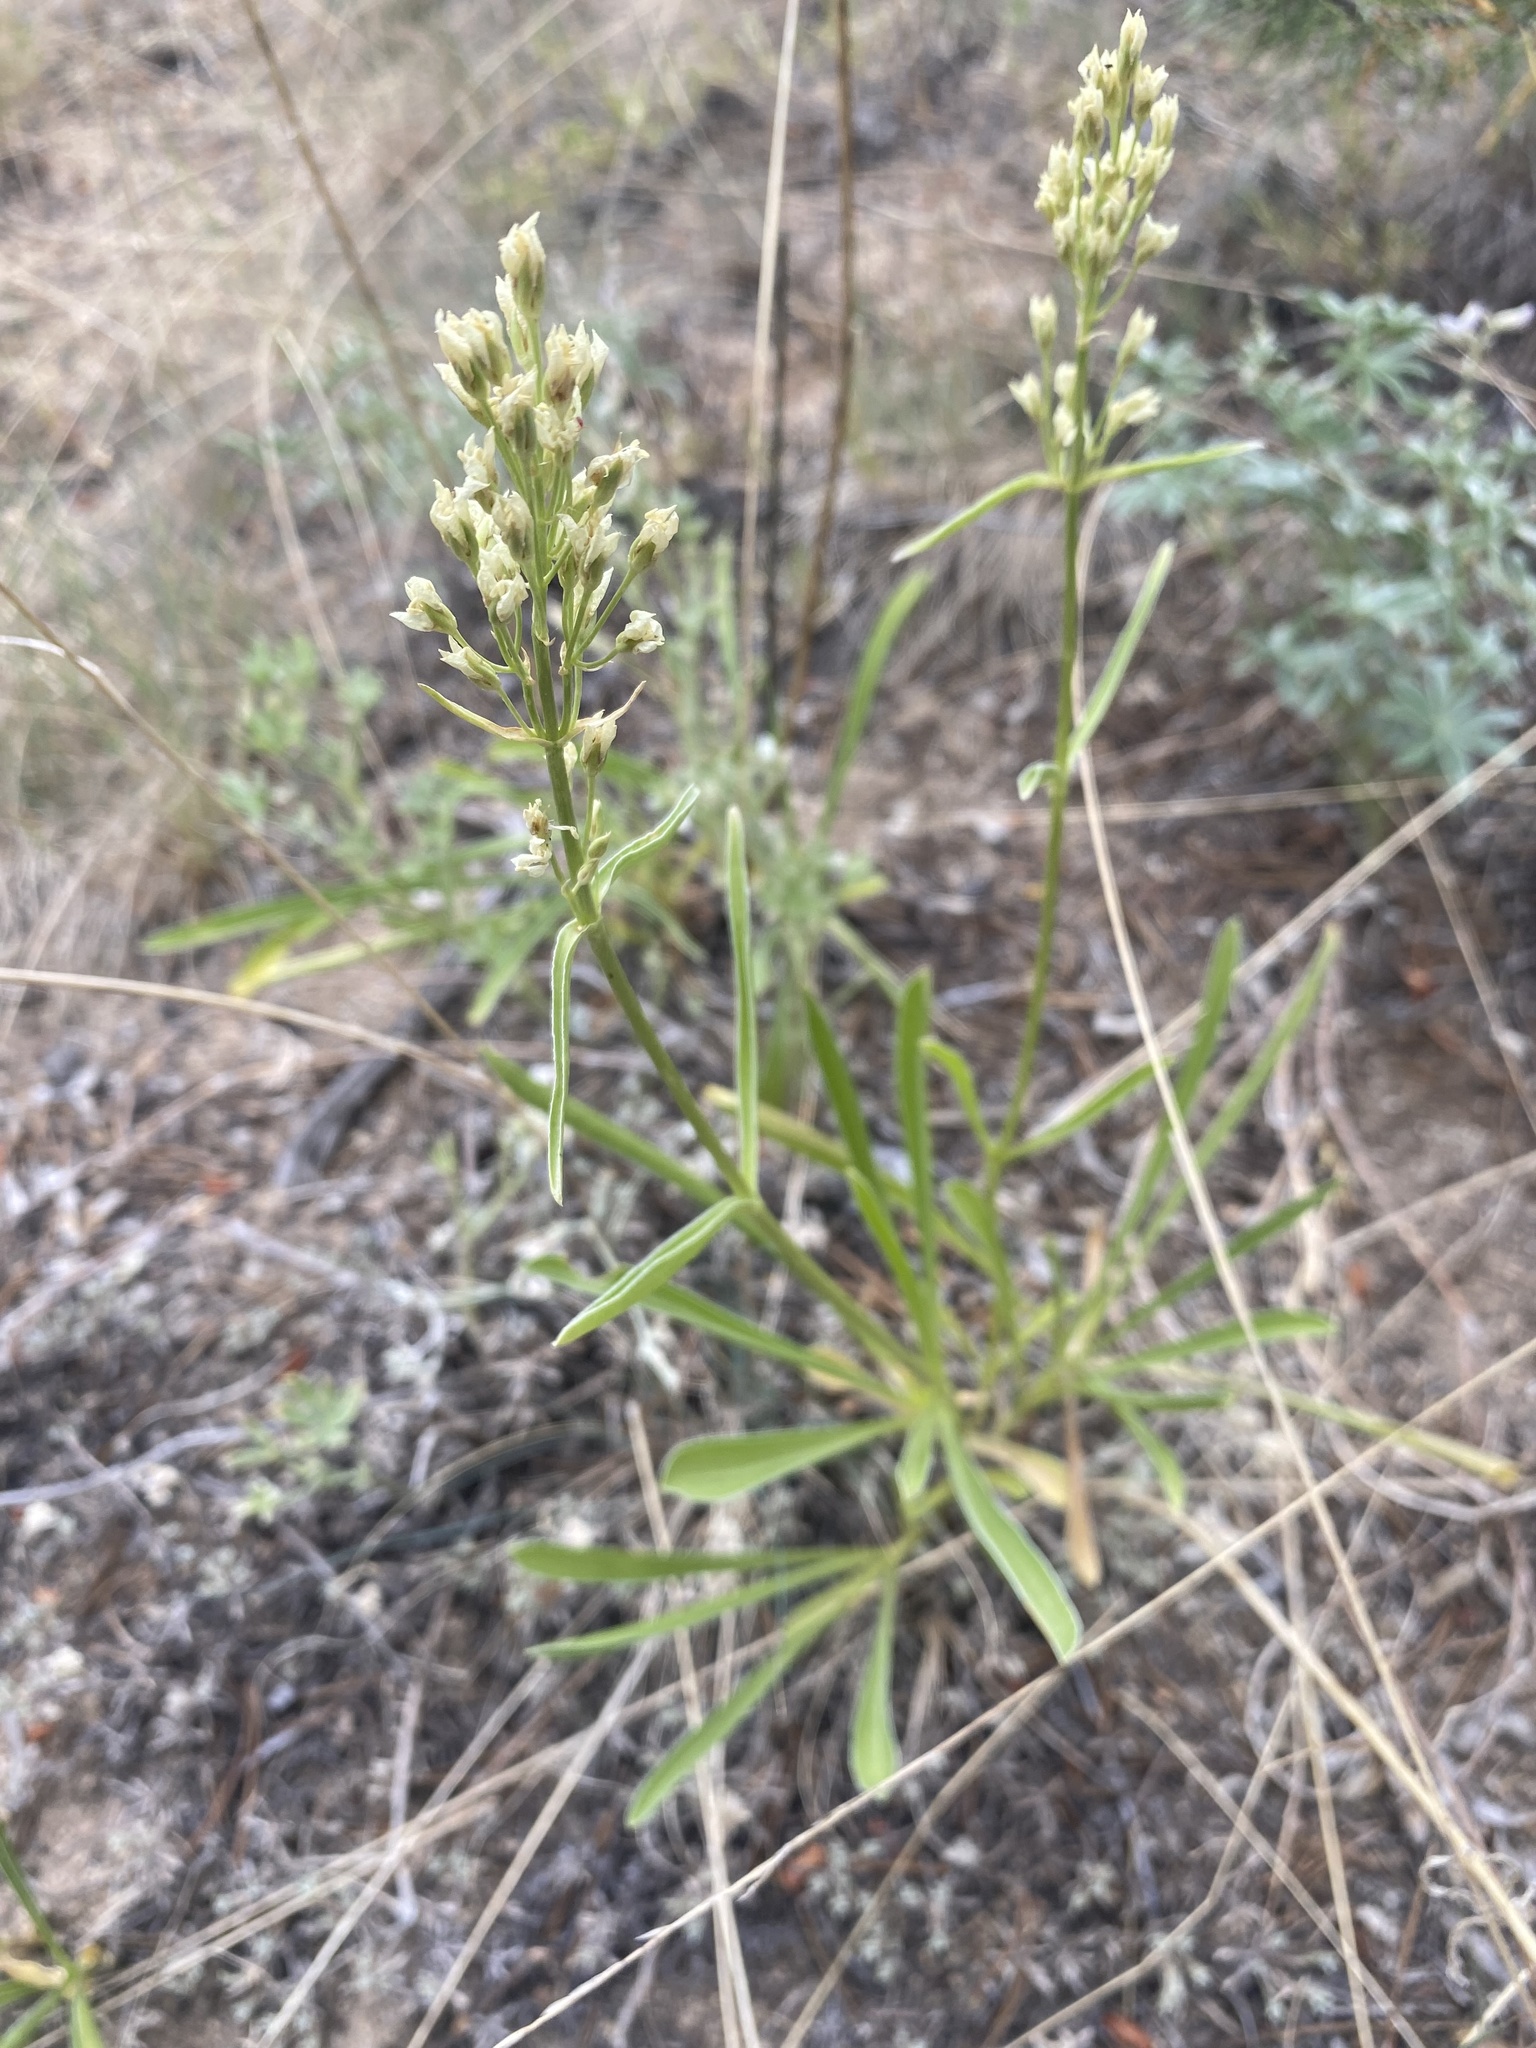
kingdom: Plantae
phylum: Tracheophyta
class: Magnoliopsida
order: Gentianales
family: Gentianaceae
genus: Frasera
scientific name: Frasera montana
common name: White frasera
